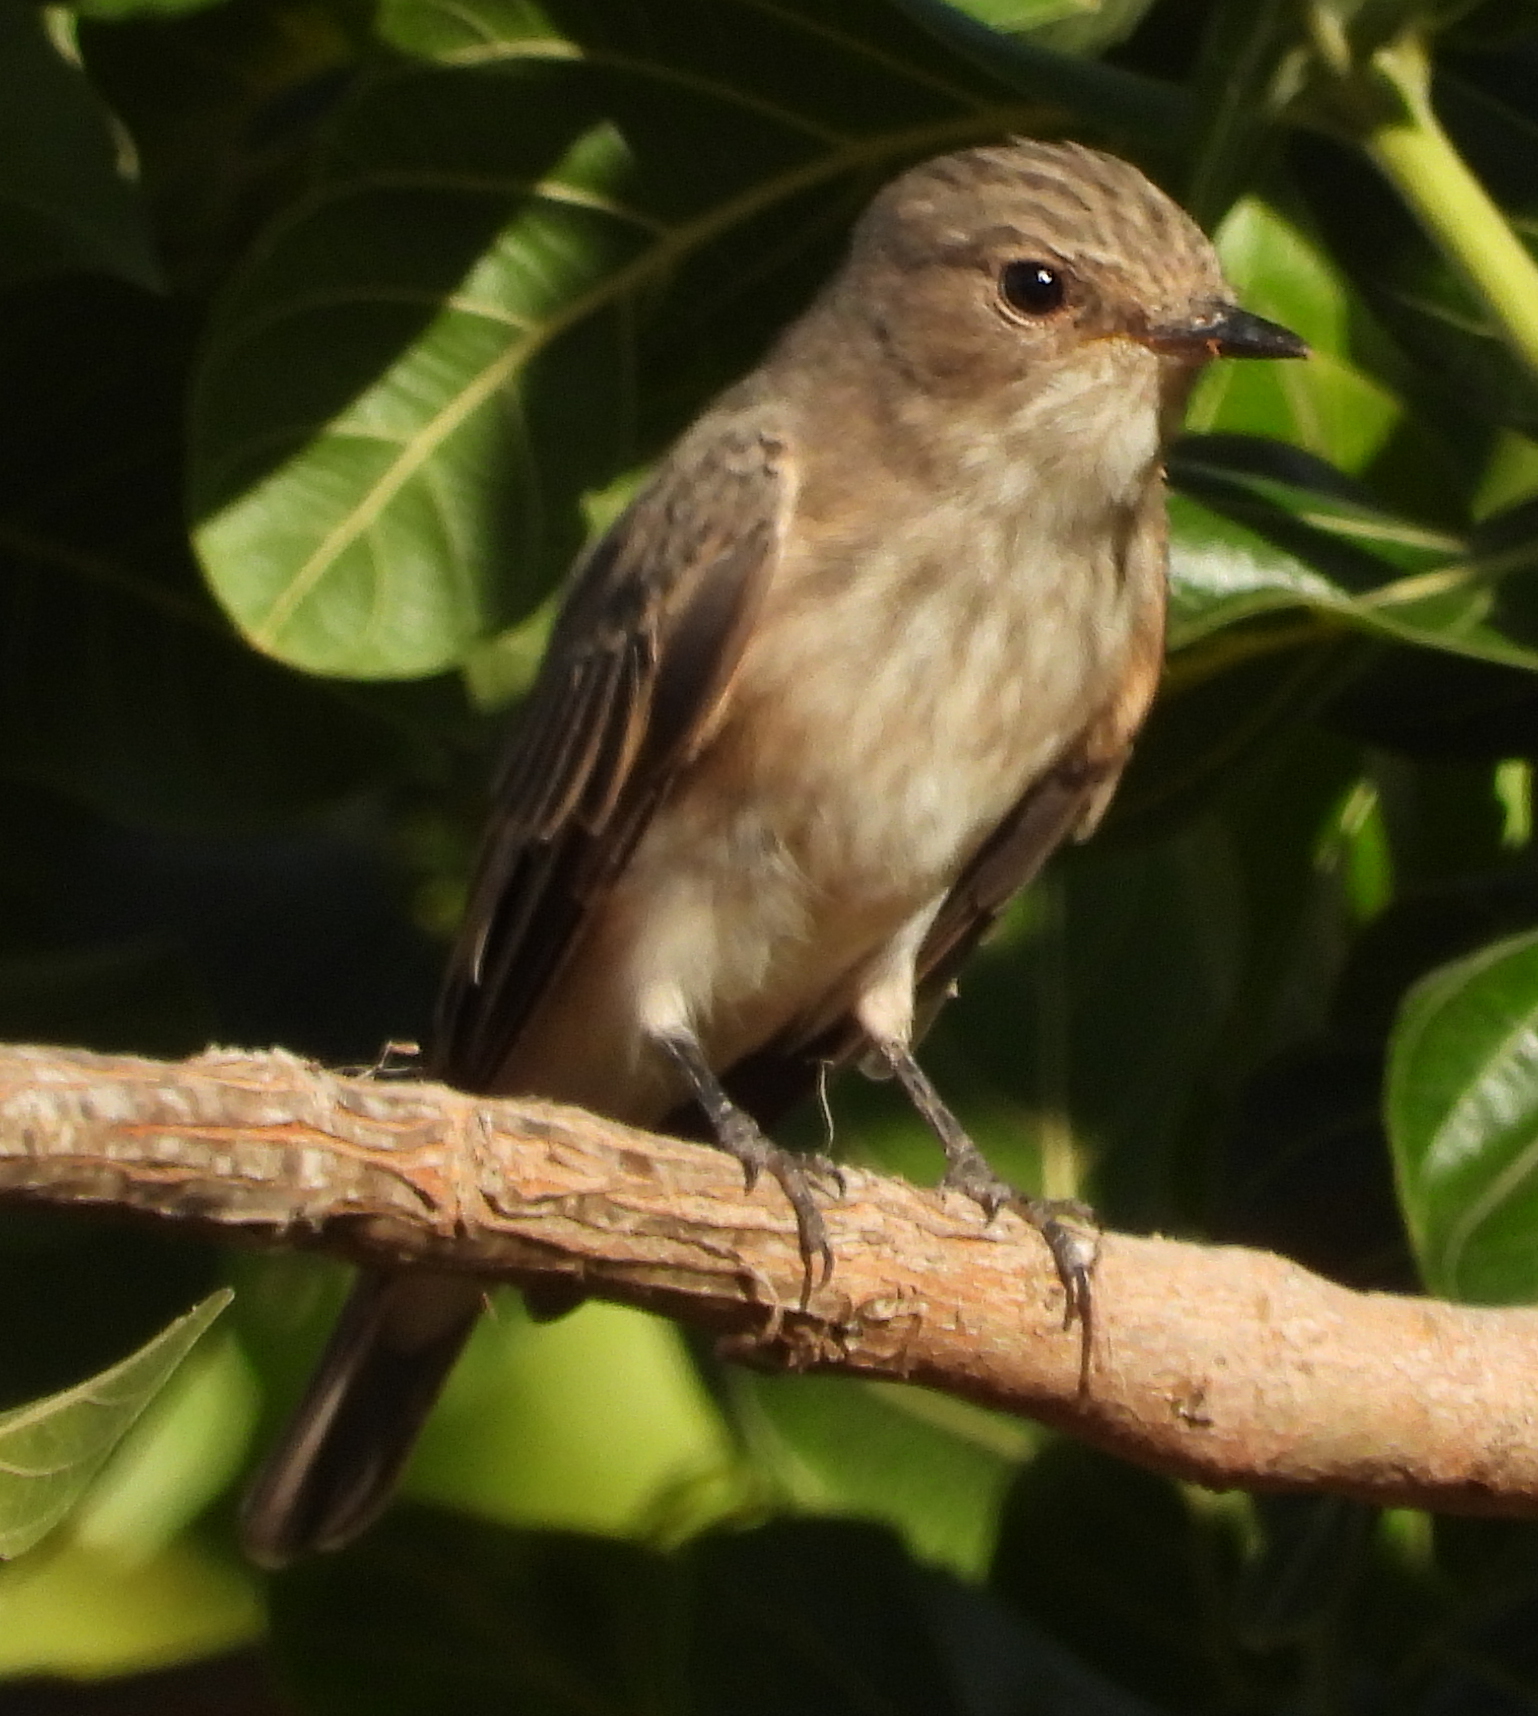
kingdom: Animalia
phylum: Chordata
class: Aves
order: Passeriformes
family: Muscicapidae
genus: Muscicapa
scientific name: Muscicapa striata
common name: Spotted flycatcher
